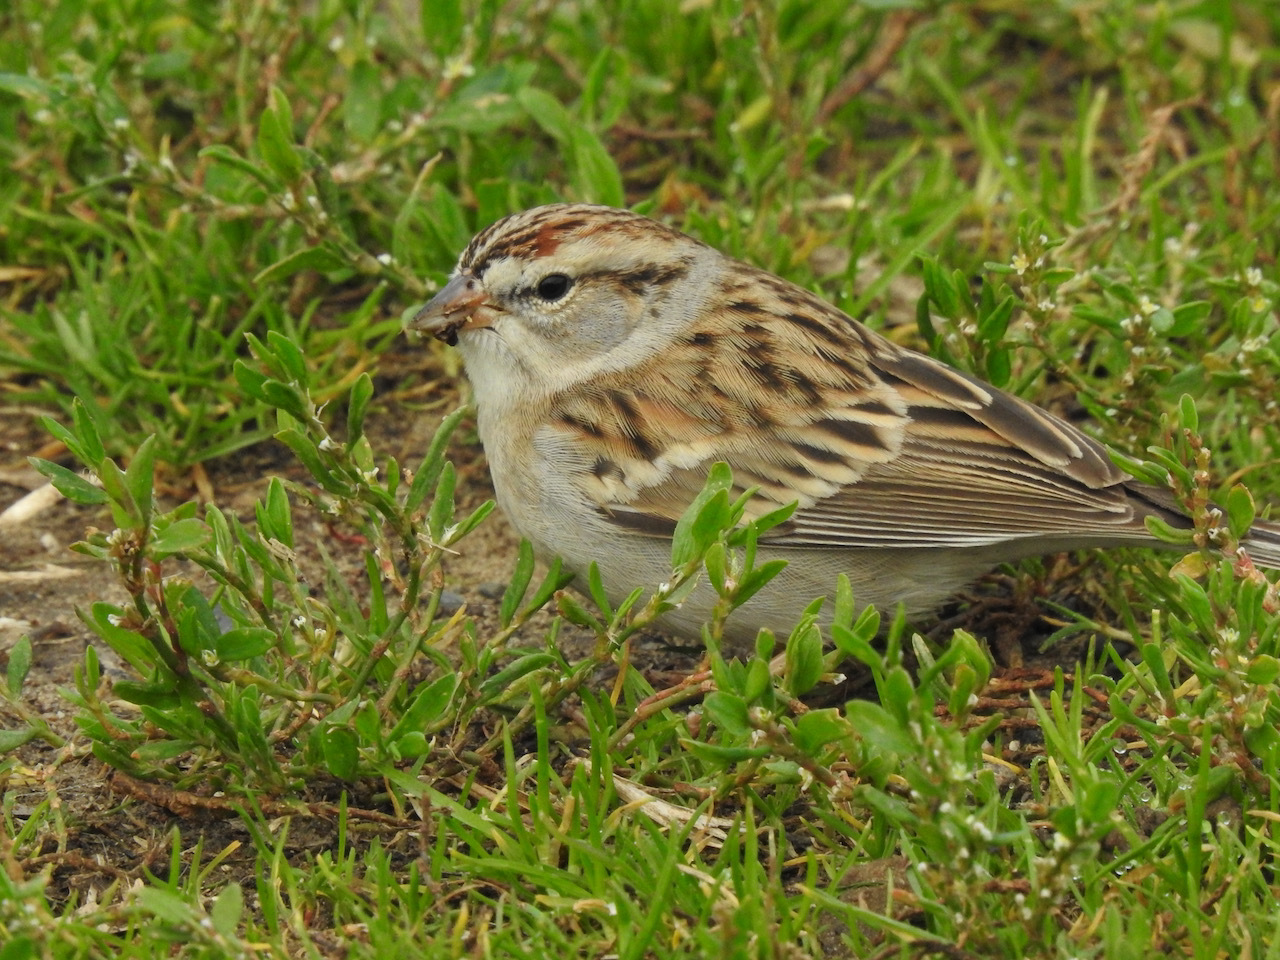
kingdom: Animalia
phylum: Chordata
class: Aves
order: Passeriformes
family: Passerellidae
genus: Spizella
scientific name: Spizella passerina
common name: Chipping sparrow
